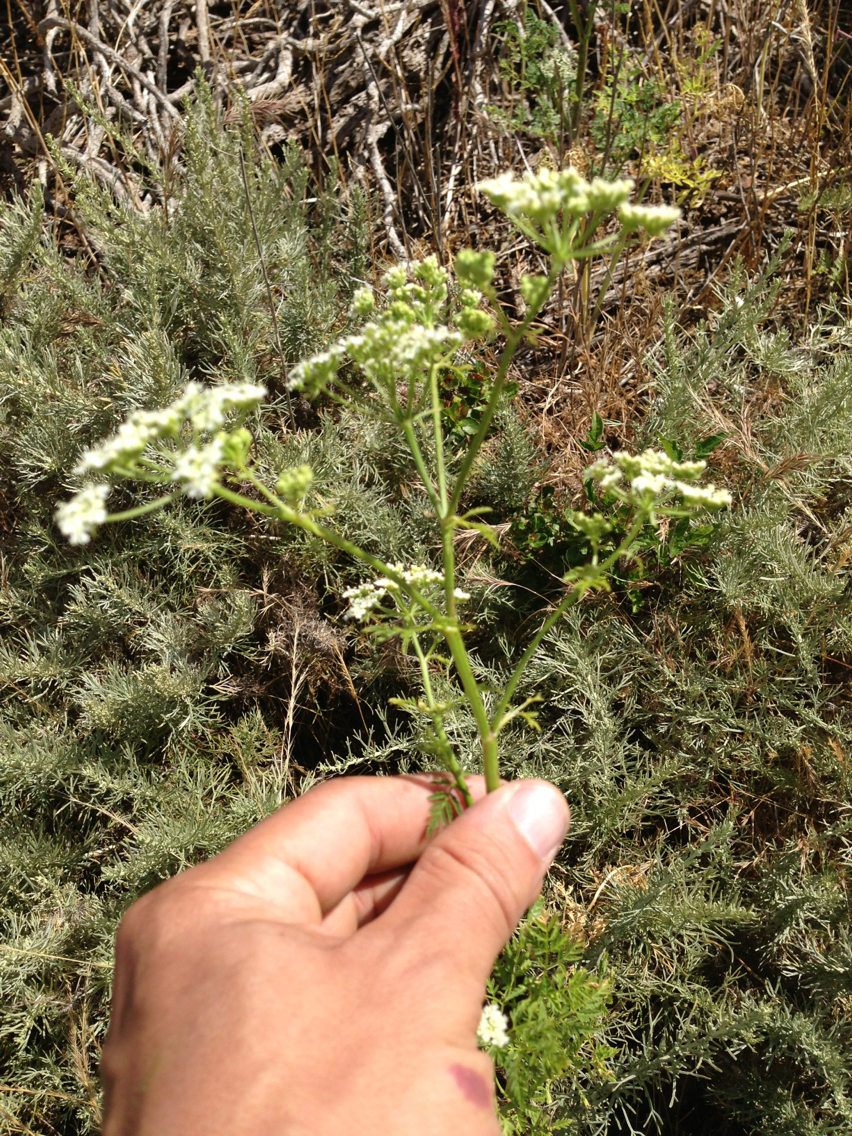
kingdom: Plantae
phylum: Tracheophyta
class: Magnoliopsida
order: Apiales
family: Apiaceae
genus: Conium
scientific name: Conium maculatum
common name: Hemlock
